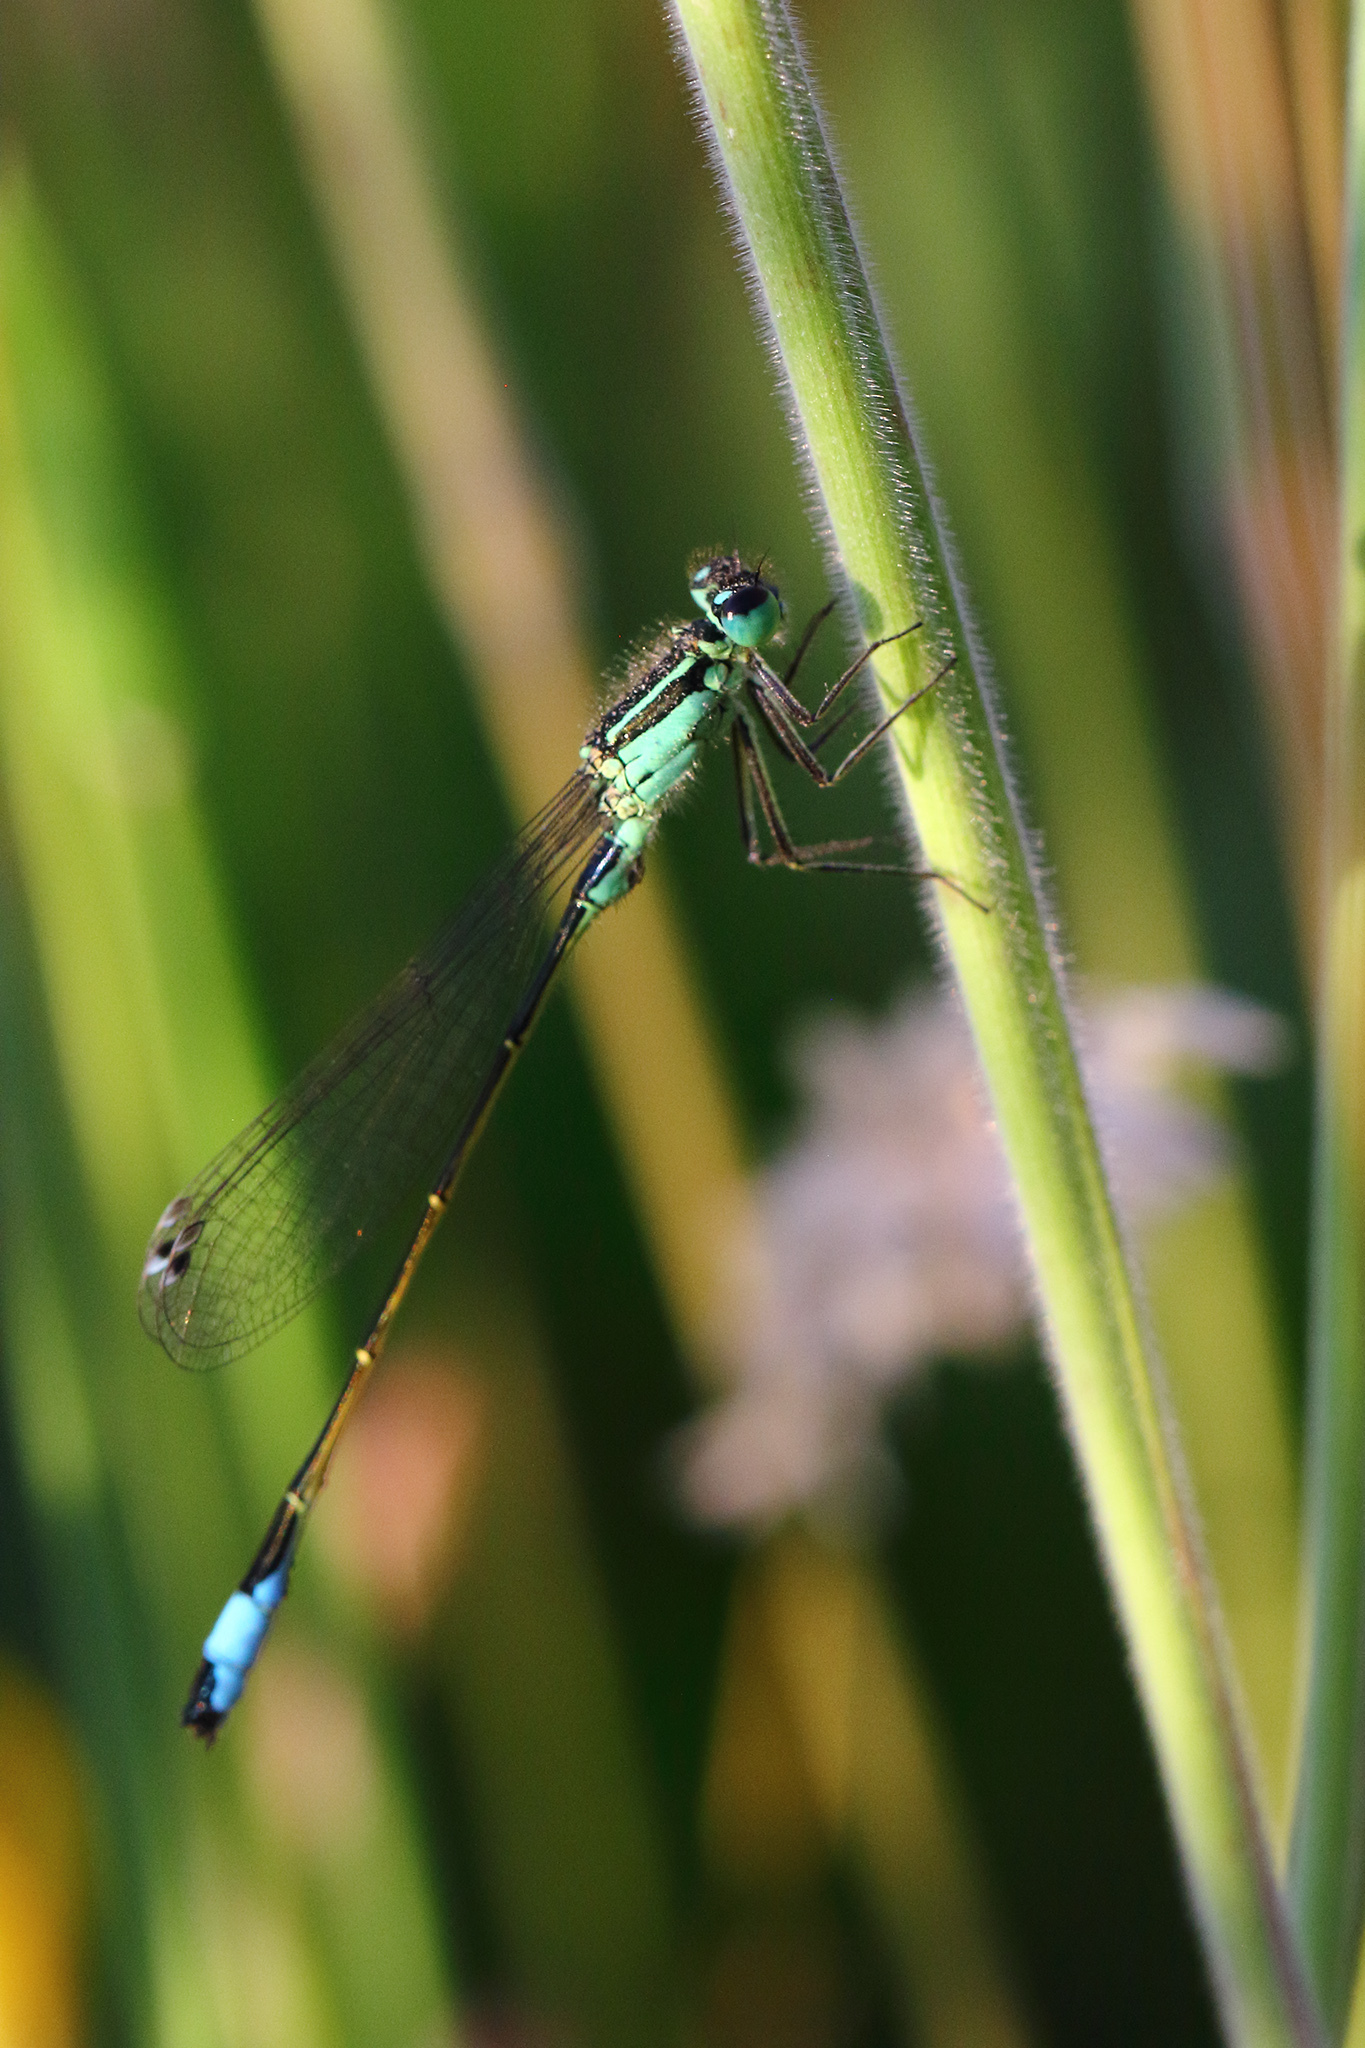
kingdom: Animalia
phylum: Arthropoda
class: Insecta
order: Odonata
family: Coenagrionidae
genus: Ischnura
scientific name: Ischnura elegans
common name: Blue-tailed damselfly
